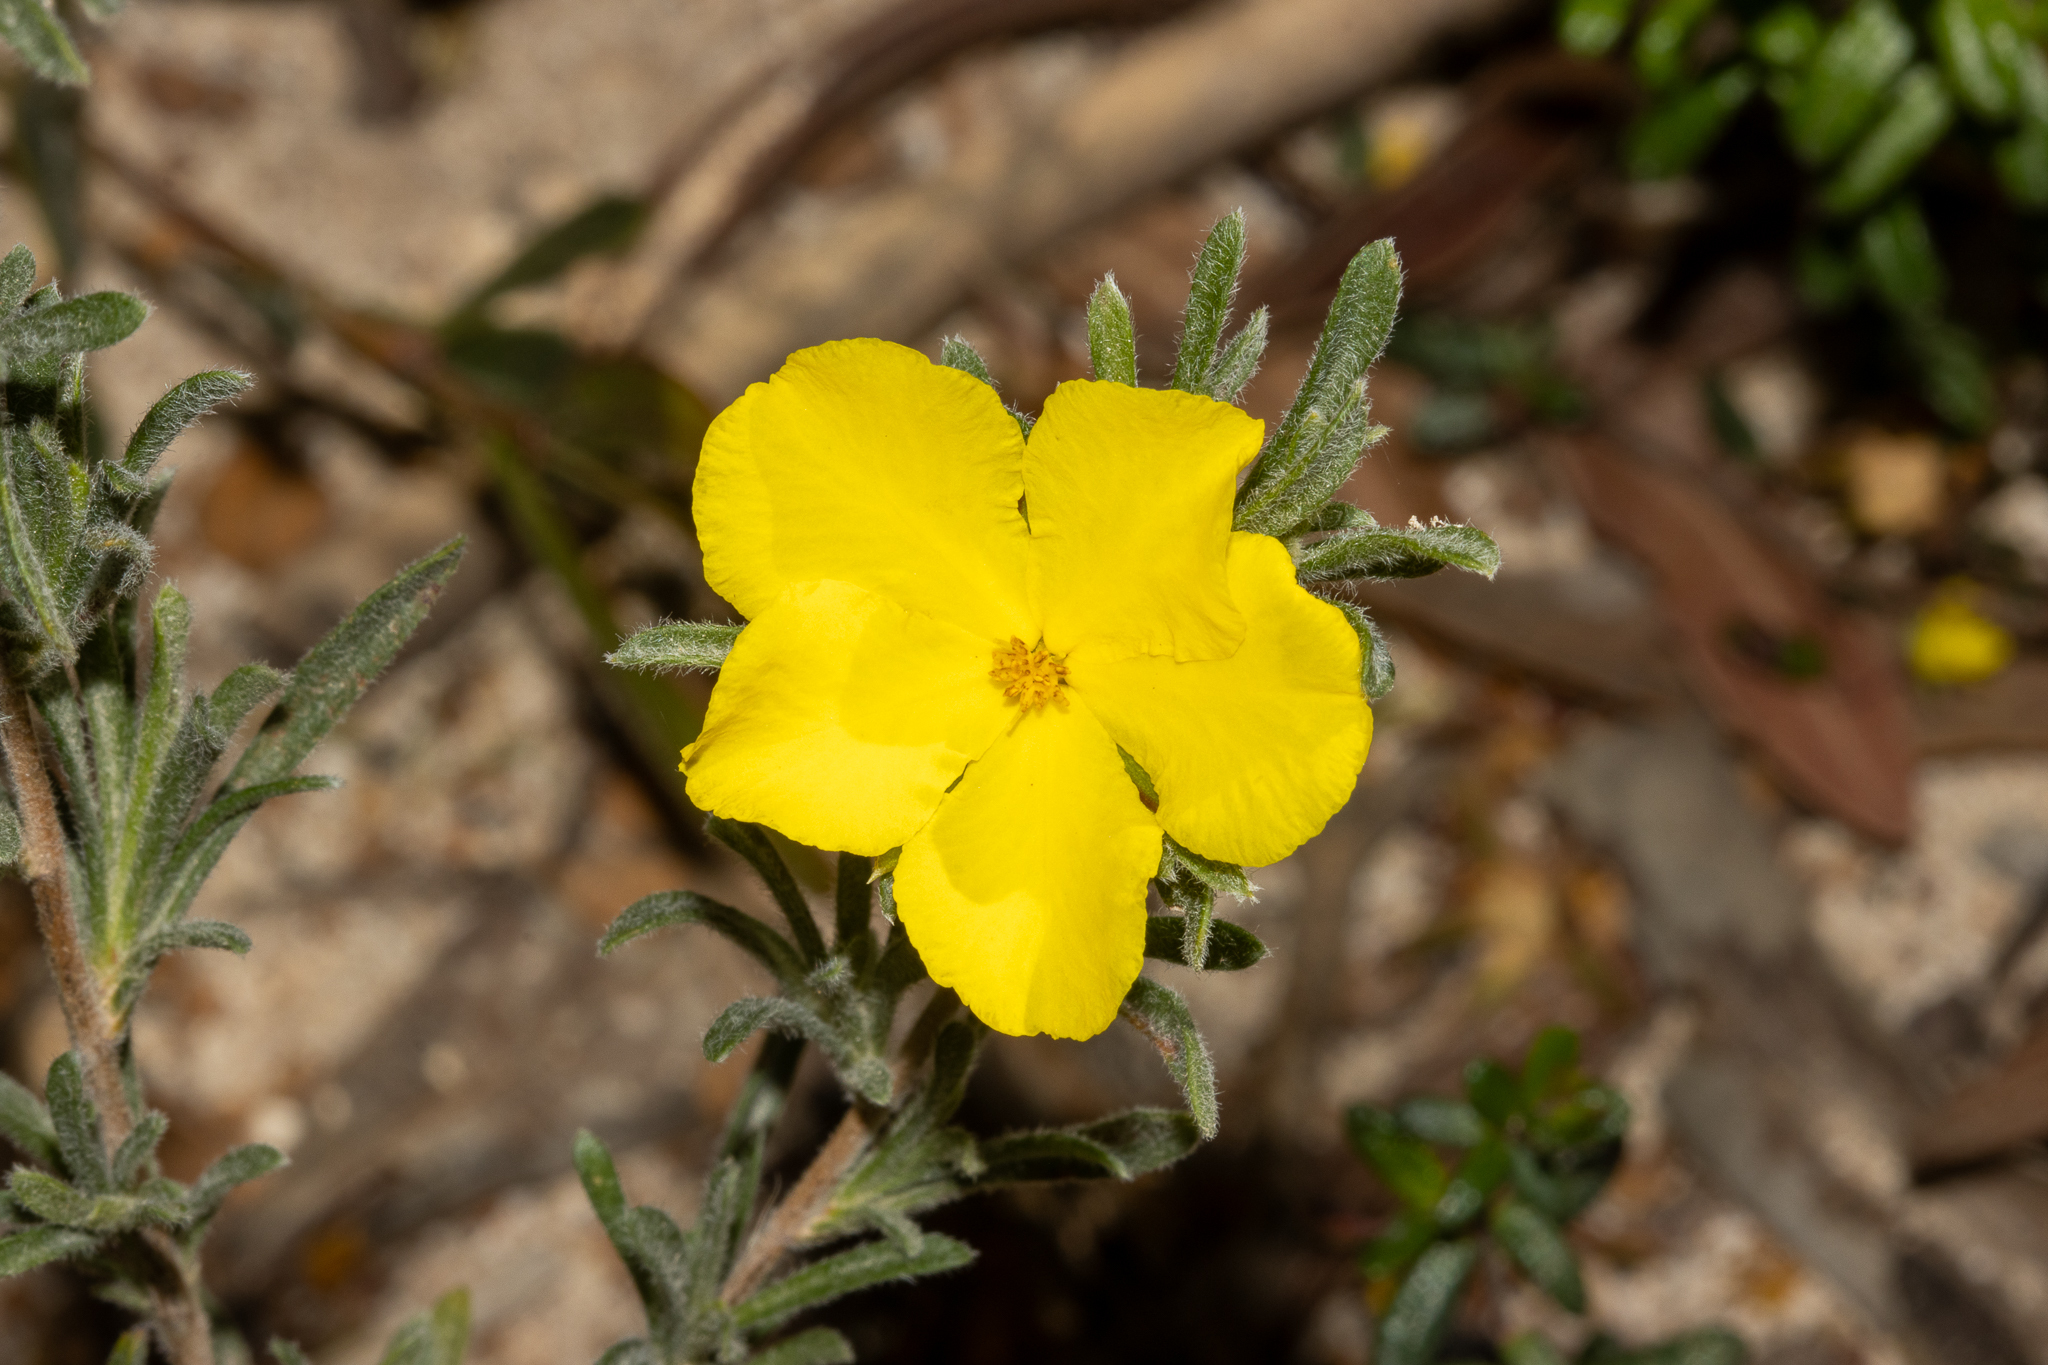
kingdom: Plantae
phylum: Tracheophyta
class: Magnoliopsida
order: Dilleniales
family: Dilleniaceae
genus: Hibbertia
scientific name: Hibbertia virgata
